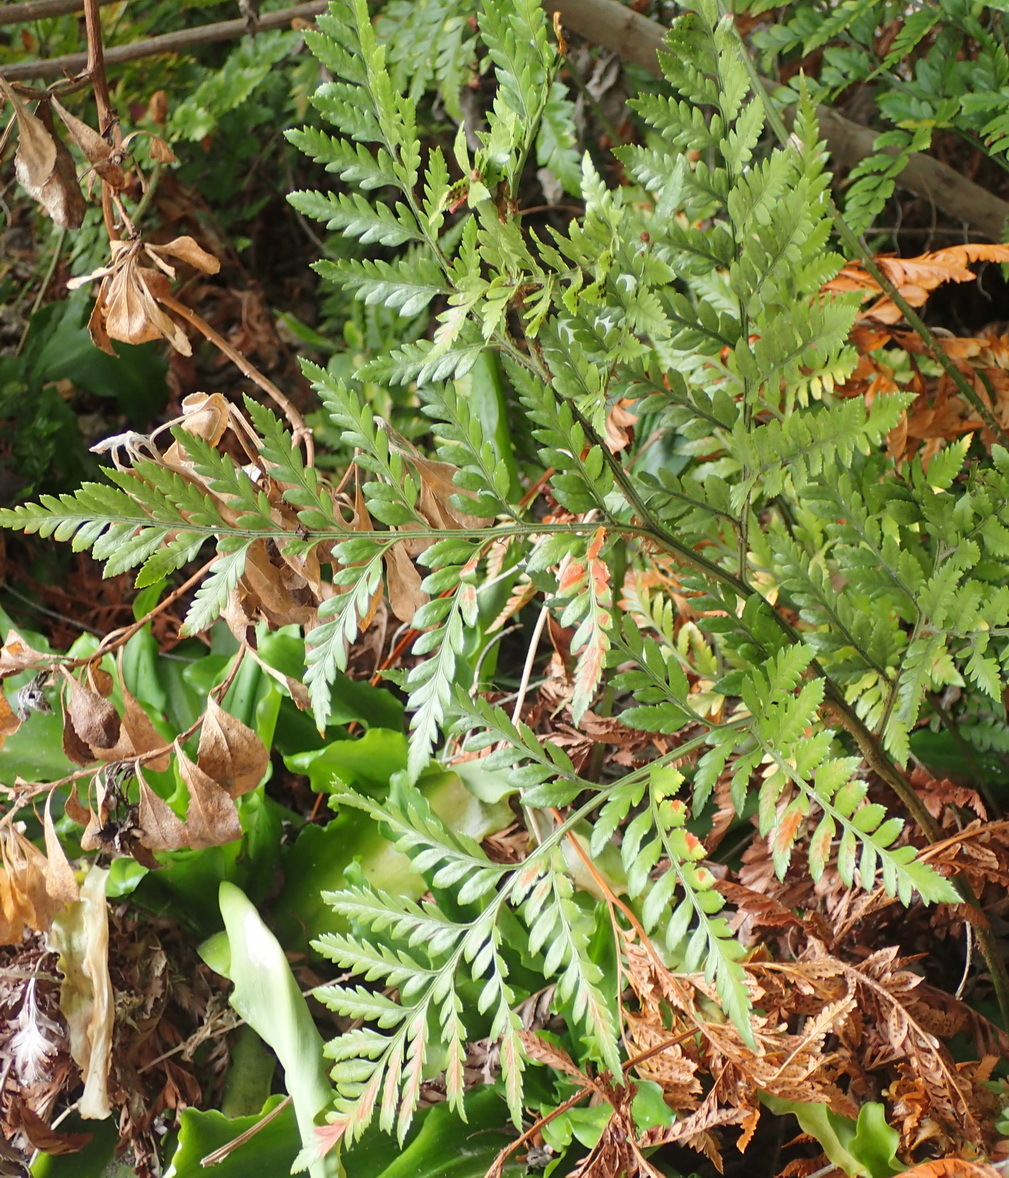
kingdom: Plantae
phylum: Tracheophyta
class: Polypodiopsida
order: Polypodiales
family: Dryopteridaceae
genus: Rumohra
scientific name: Rumohra adiantiformis
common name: Leather fern
